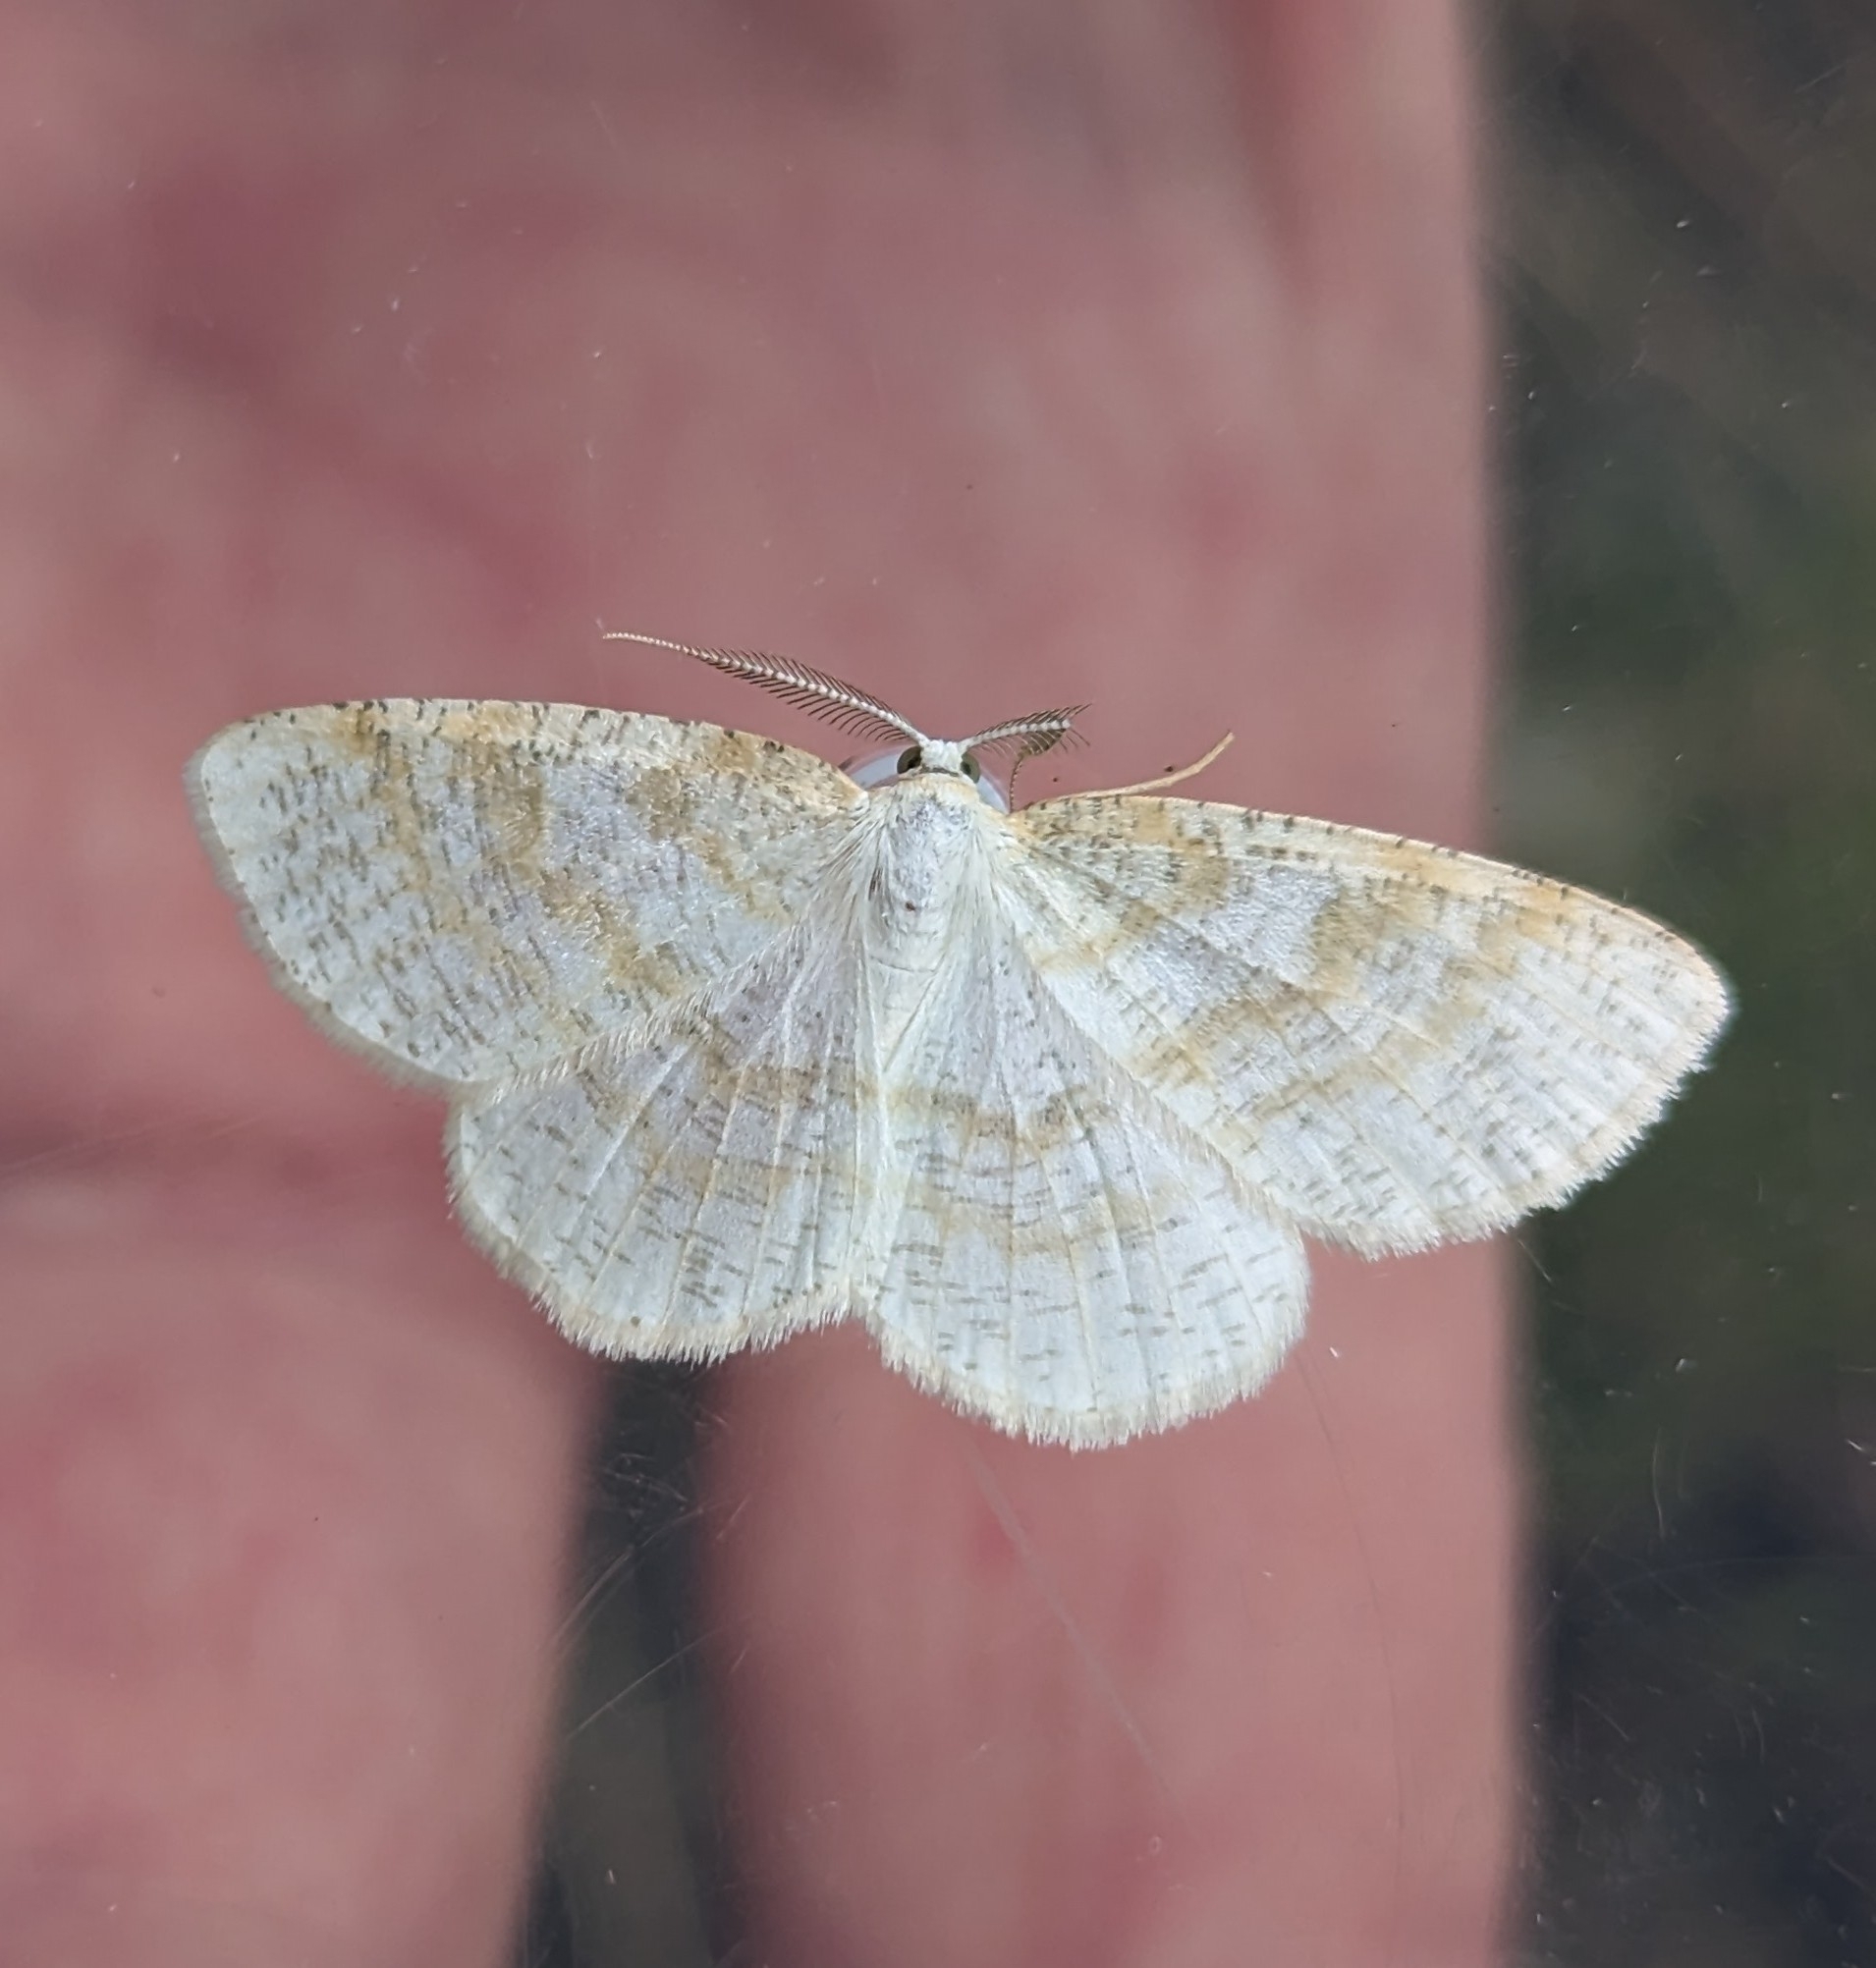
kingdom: Animalia
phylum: Arthropoda
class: Insecta
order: Lepidoptera
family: Geometridae
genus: Cabera
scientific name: Cabera erythemaria
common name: Yellow-dusted cream moth
